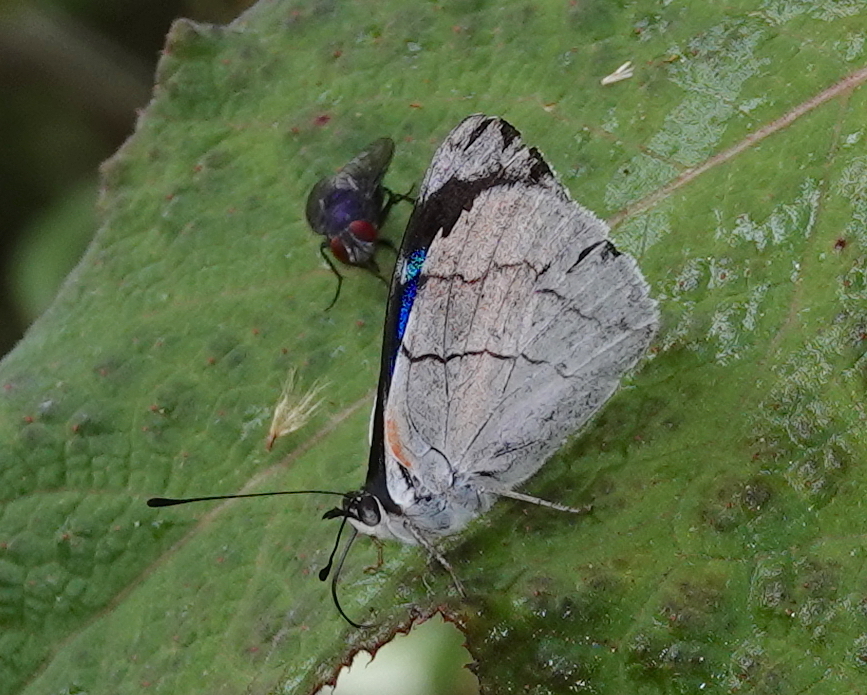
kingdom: Animalia
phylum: Arthropoda
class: Insecta
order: Lepidoptera
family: Nymphalidae
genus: Perisama
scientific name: Perisama bonplandii
